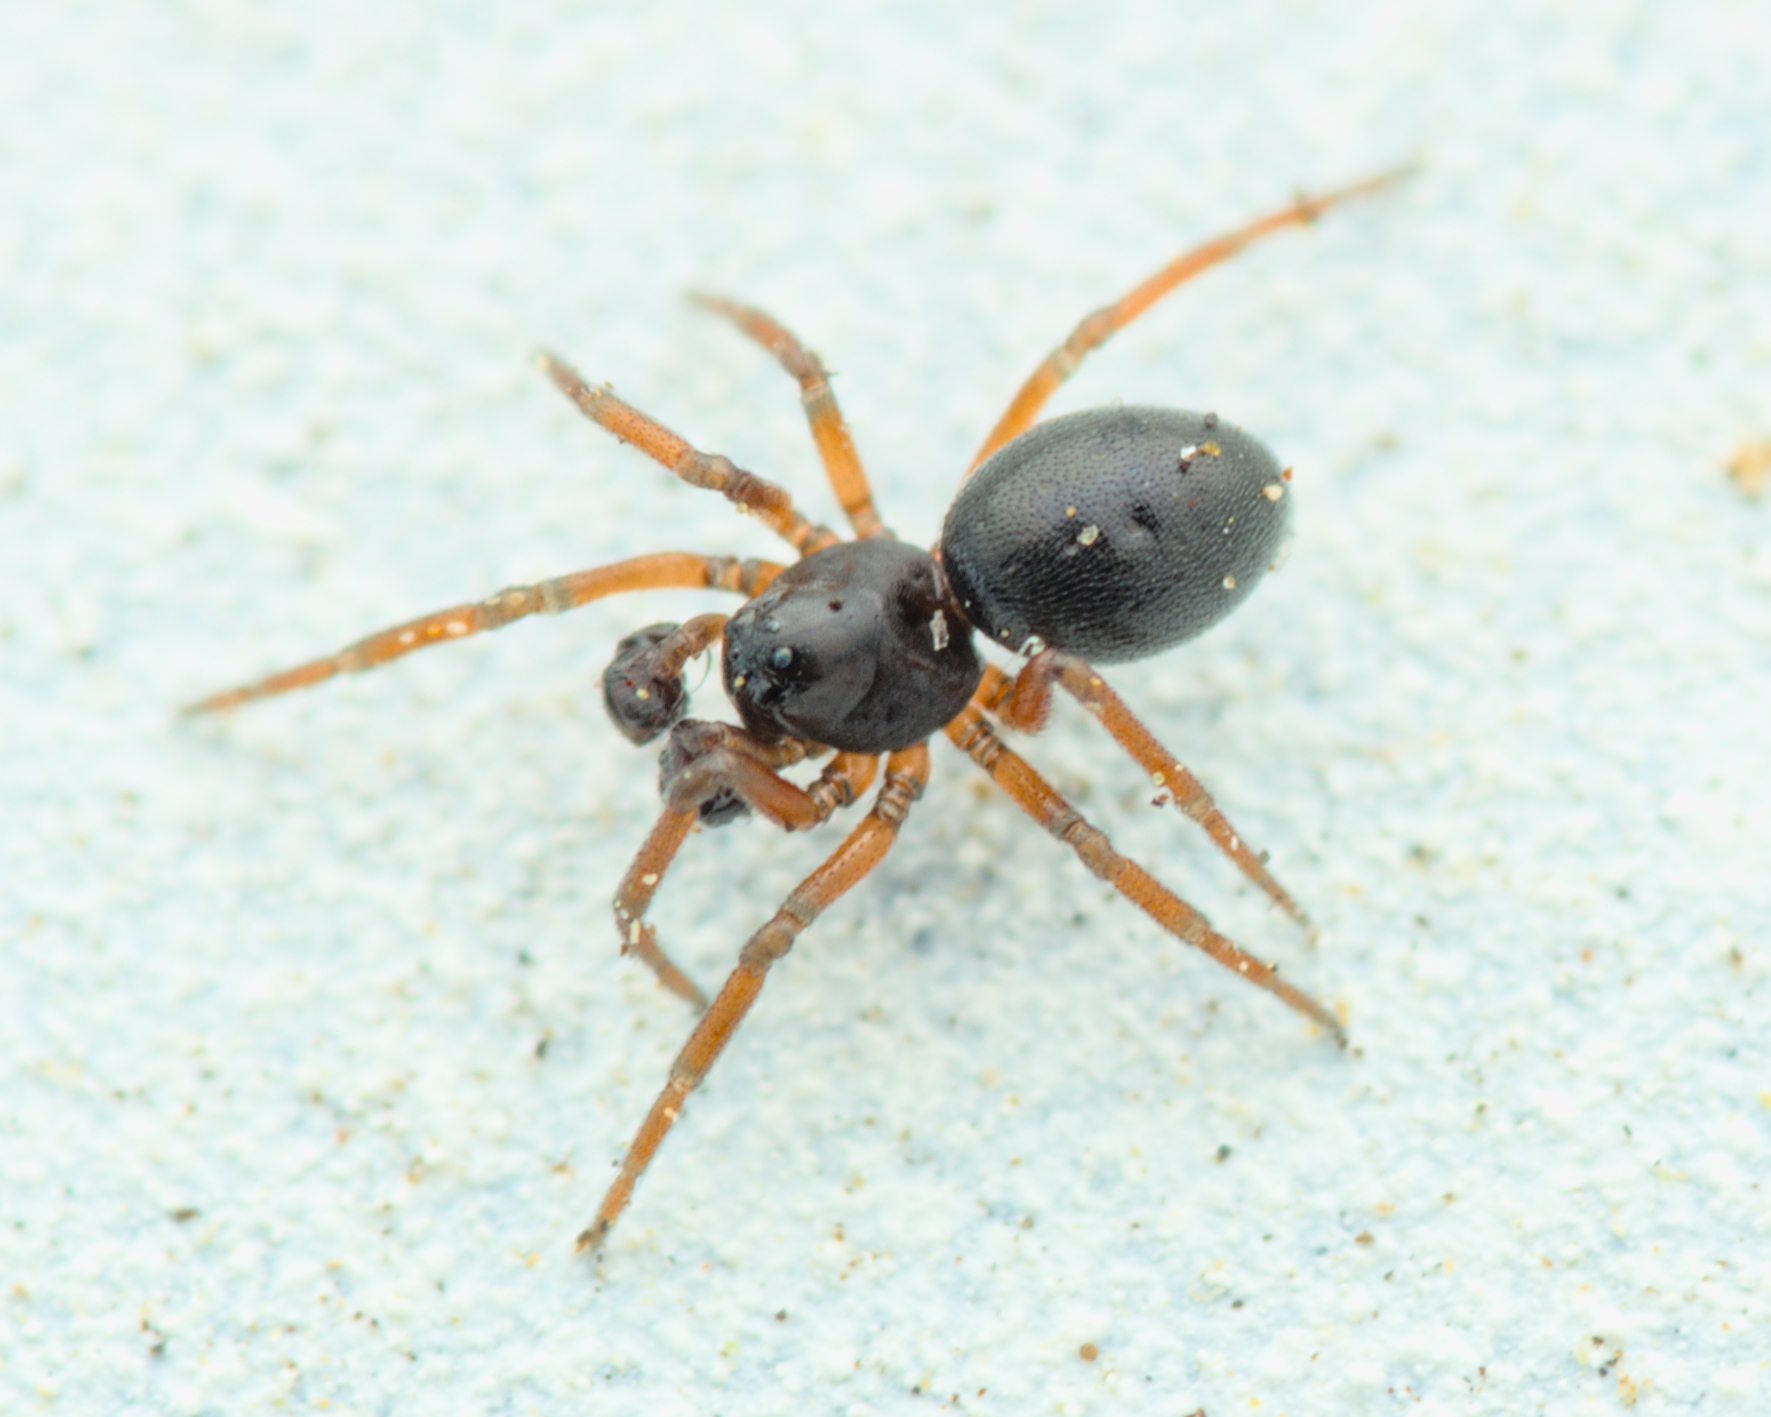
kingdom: Animalia
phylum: Arthropoda
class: Arachnida
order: Araneae
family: Linyphiidae
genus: Silometopus
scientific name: Silometopus curtus
